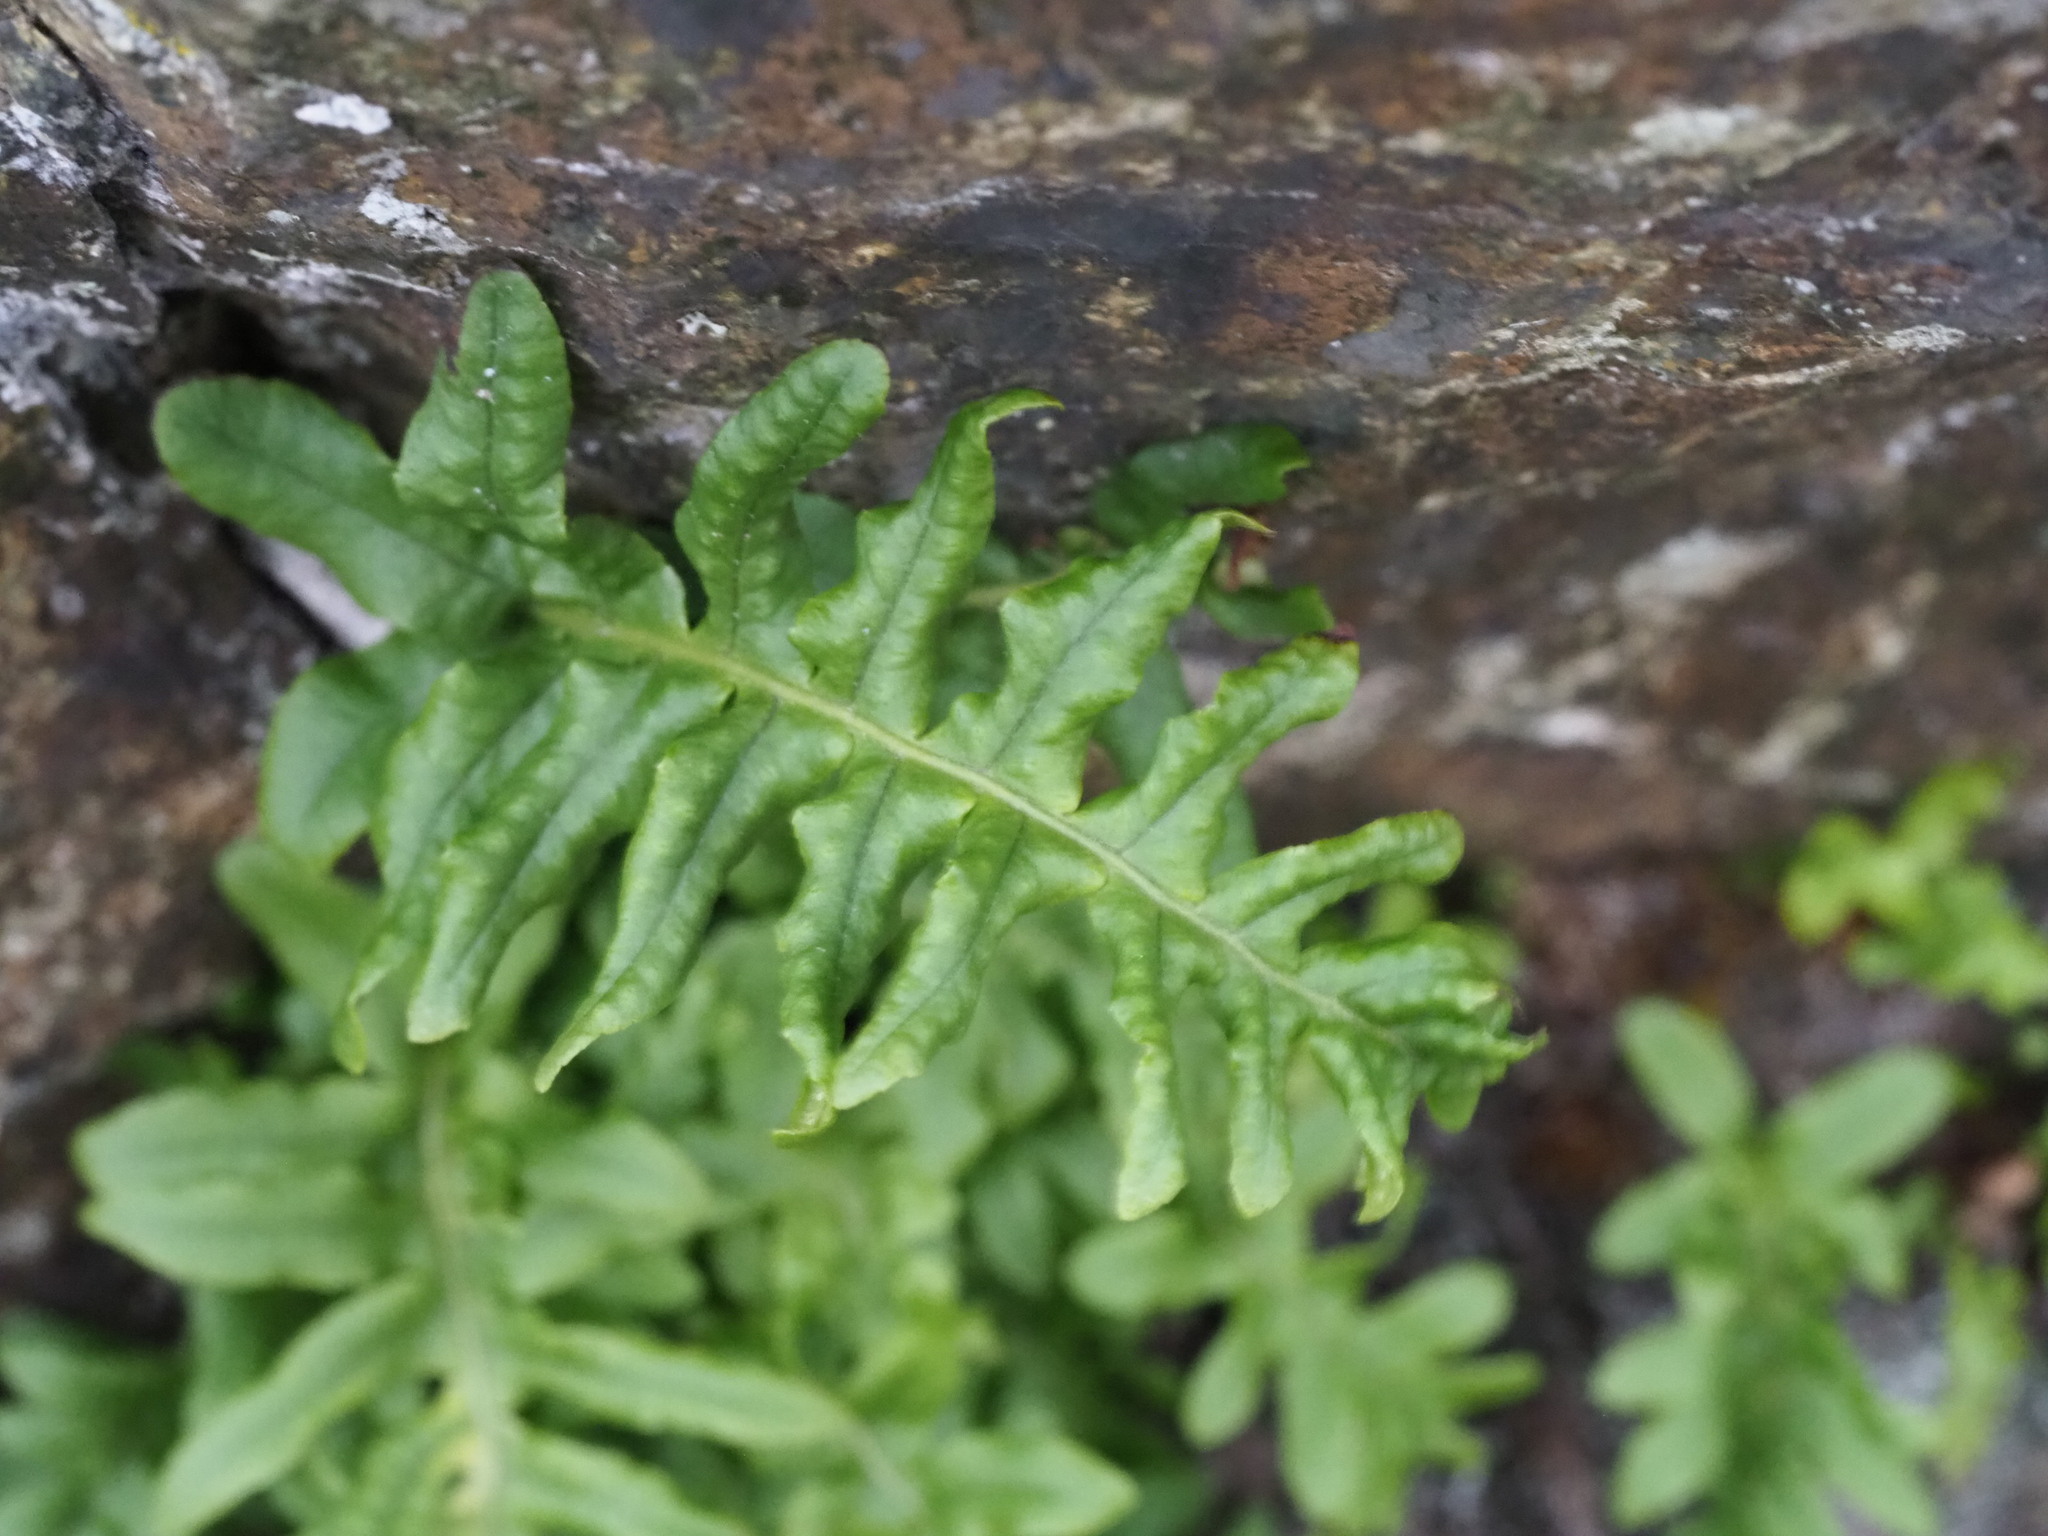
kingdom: Plantae
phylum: Tracheophyta
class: Polypodiopsida
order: Polypodiales
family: Polypodiaceae
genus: Polypodium
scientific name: Polypodium glycyrrhiza
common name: Licorice fern
